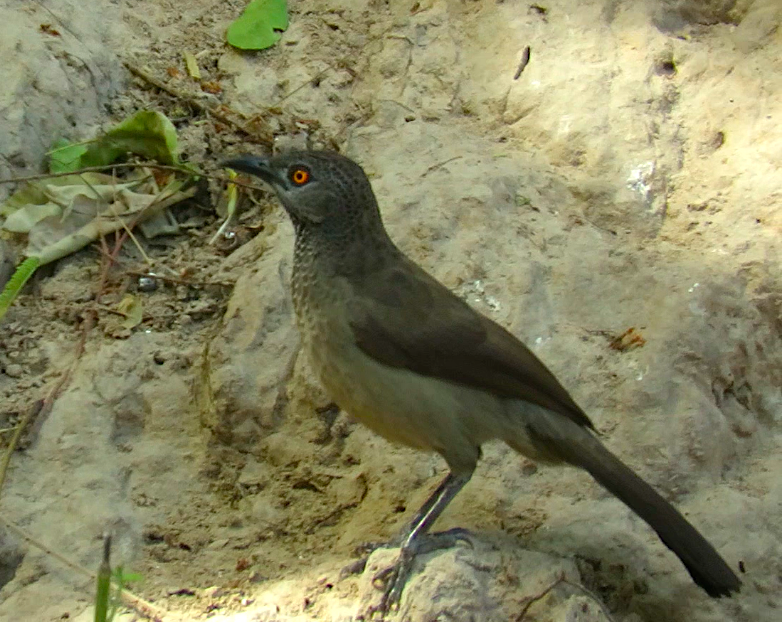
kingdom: Animalia
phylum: Chordata
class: Aves
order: Passeriformes
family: Leiothrichidae
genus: Turdoides
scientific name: Turdoides plebejus
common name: Brown babbler
